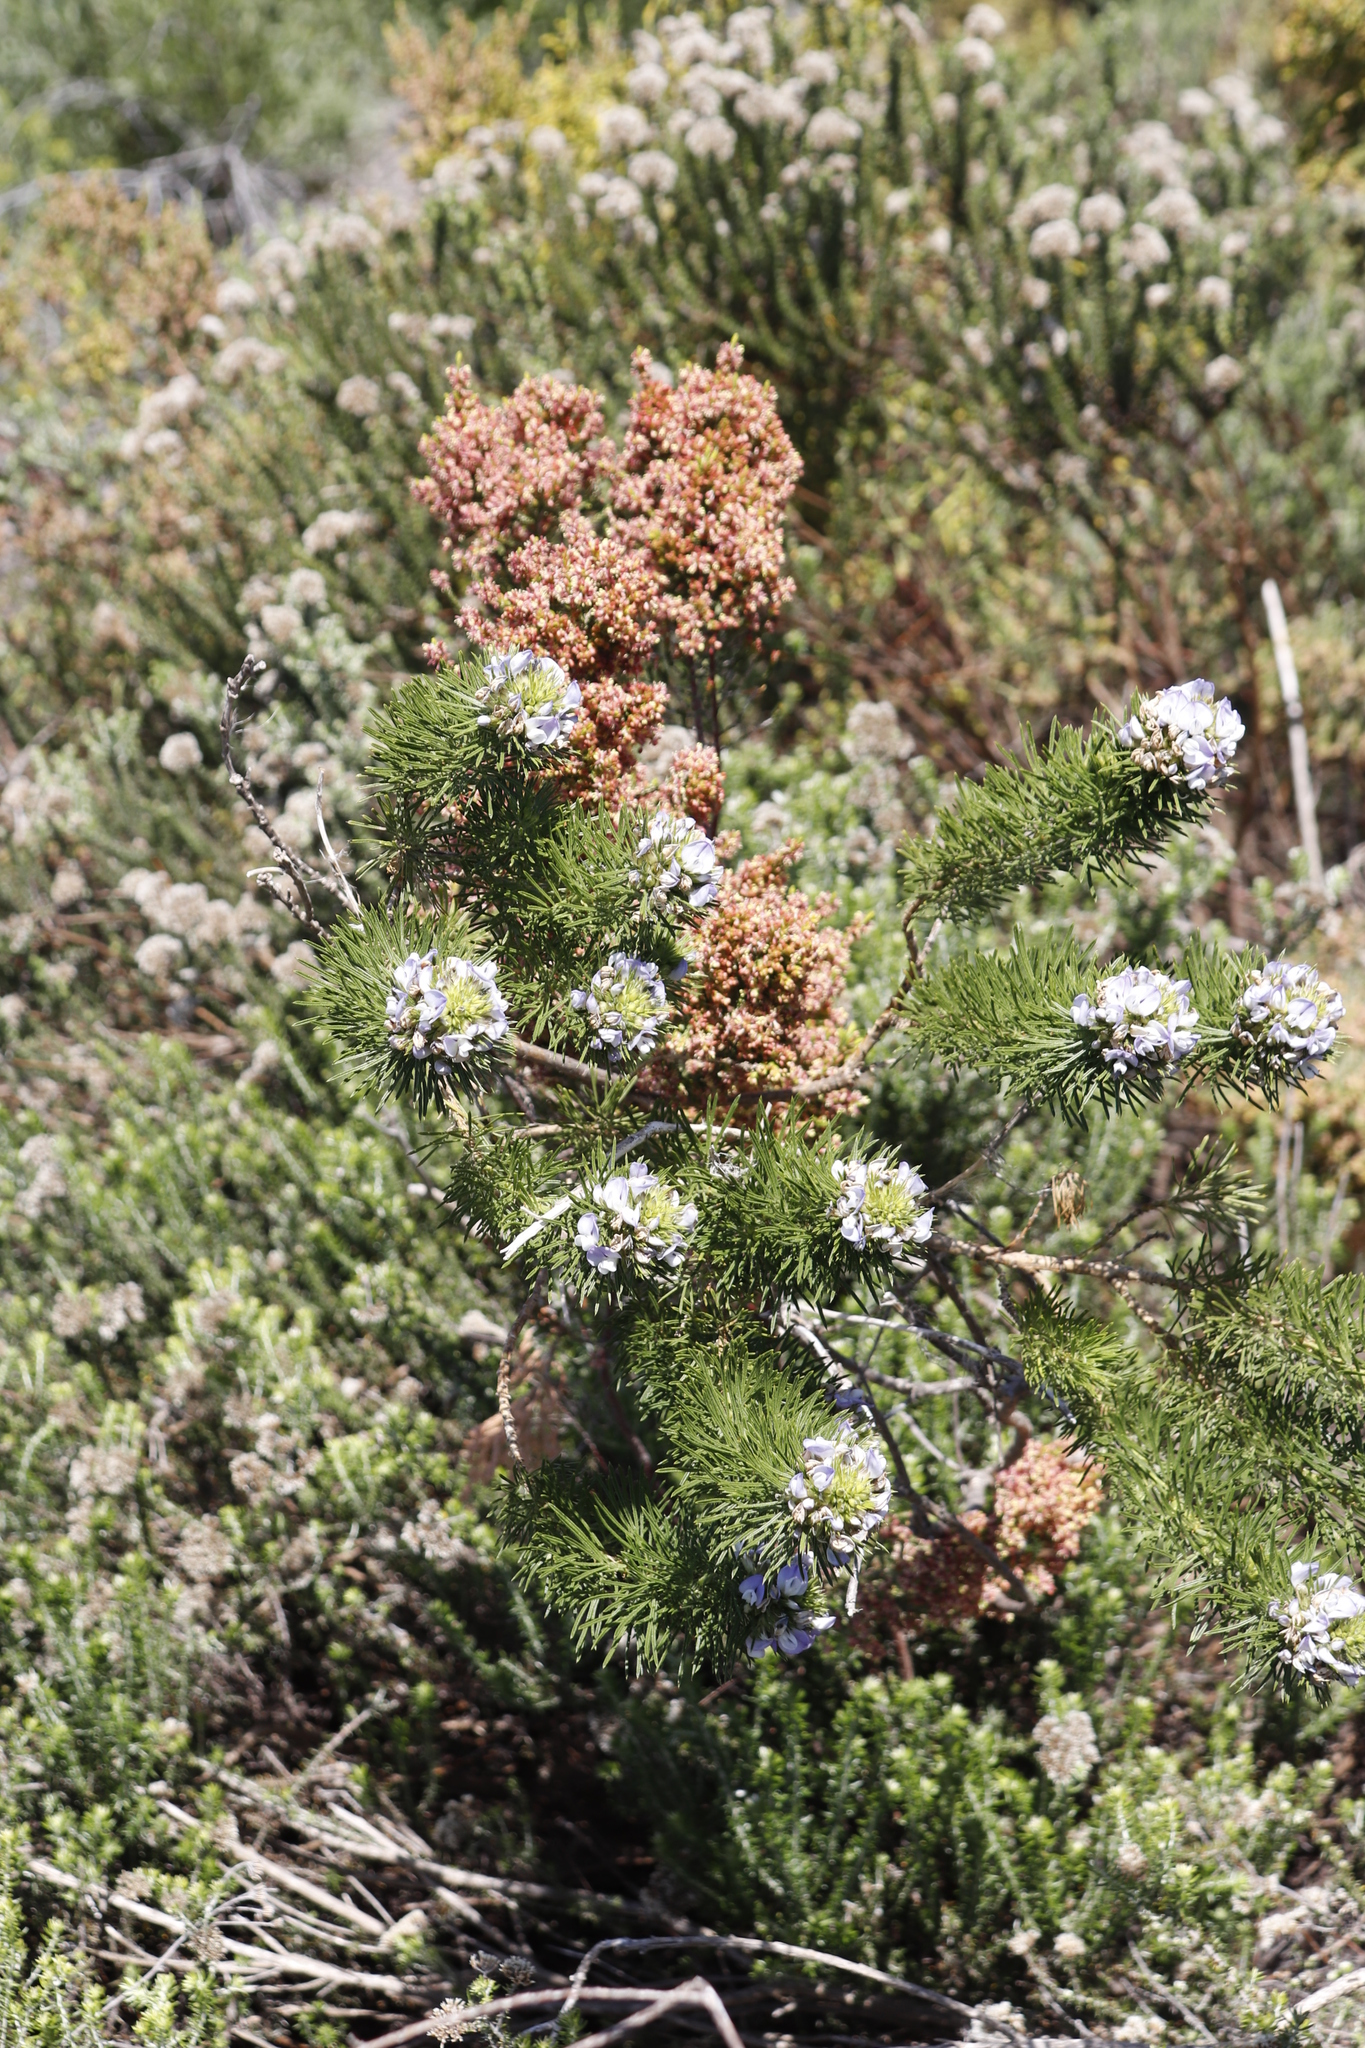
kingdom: Plantae
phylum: Tracheophyta
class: Magnoliopsida
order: Fabales
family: Fabaceae
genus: Psoralea
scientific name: Psoralea pinnata
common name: African scurfpea
